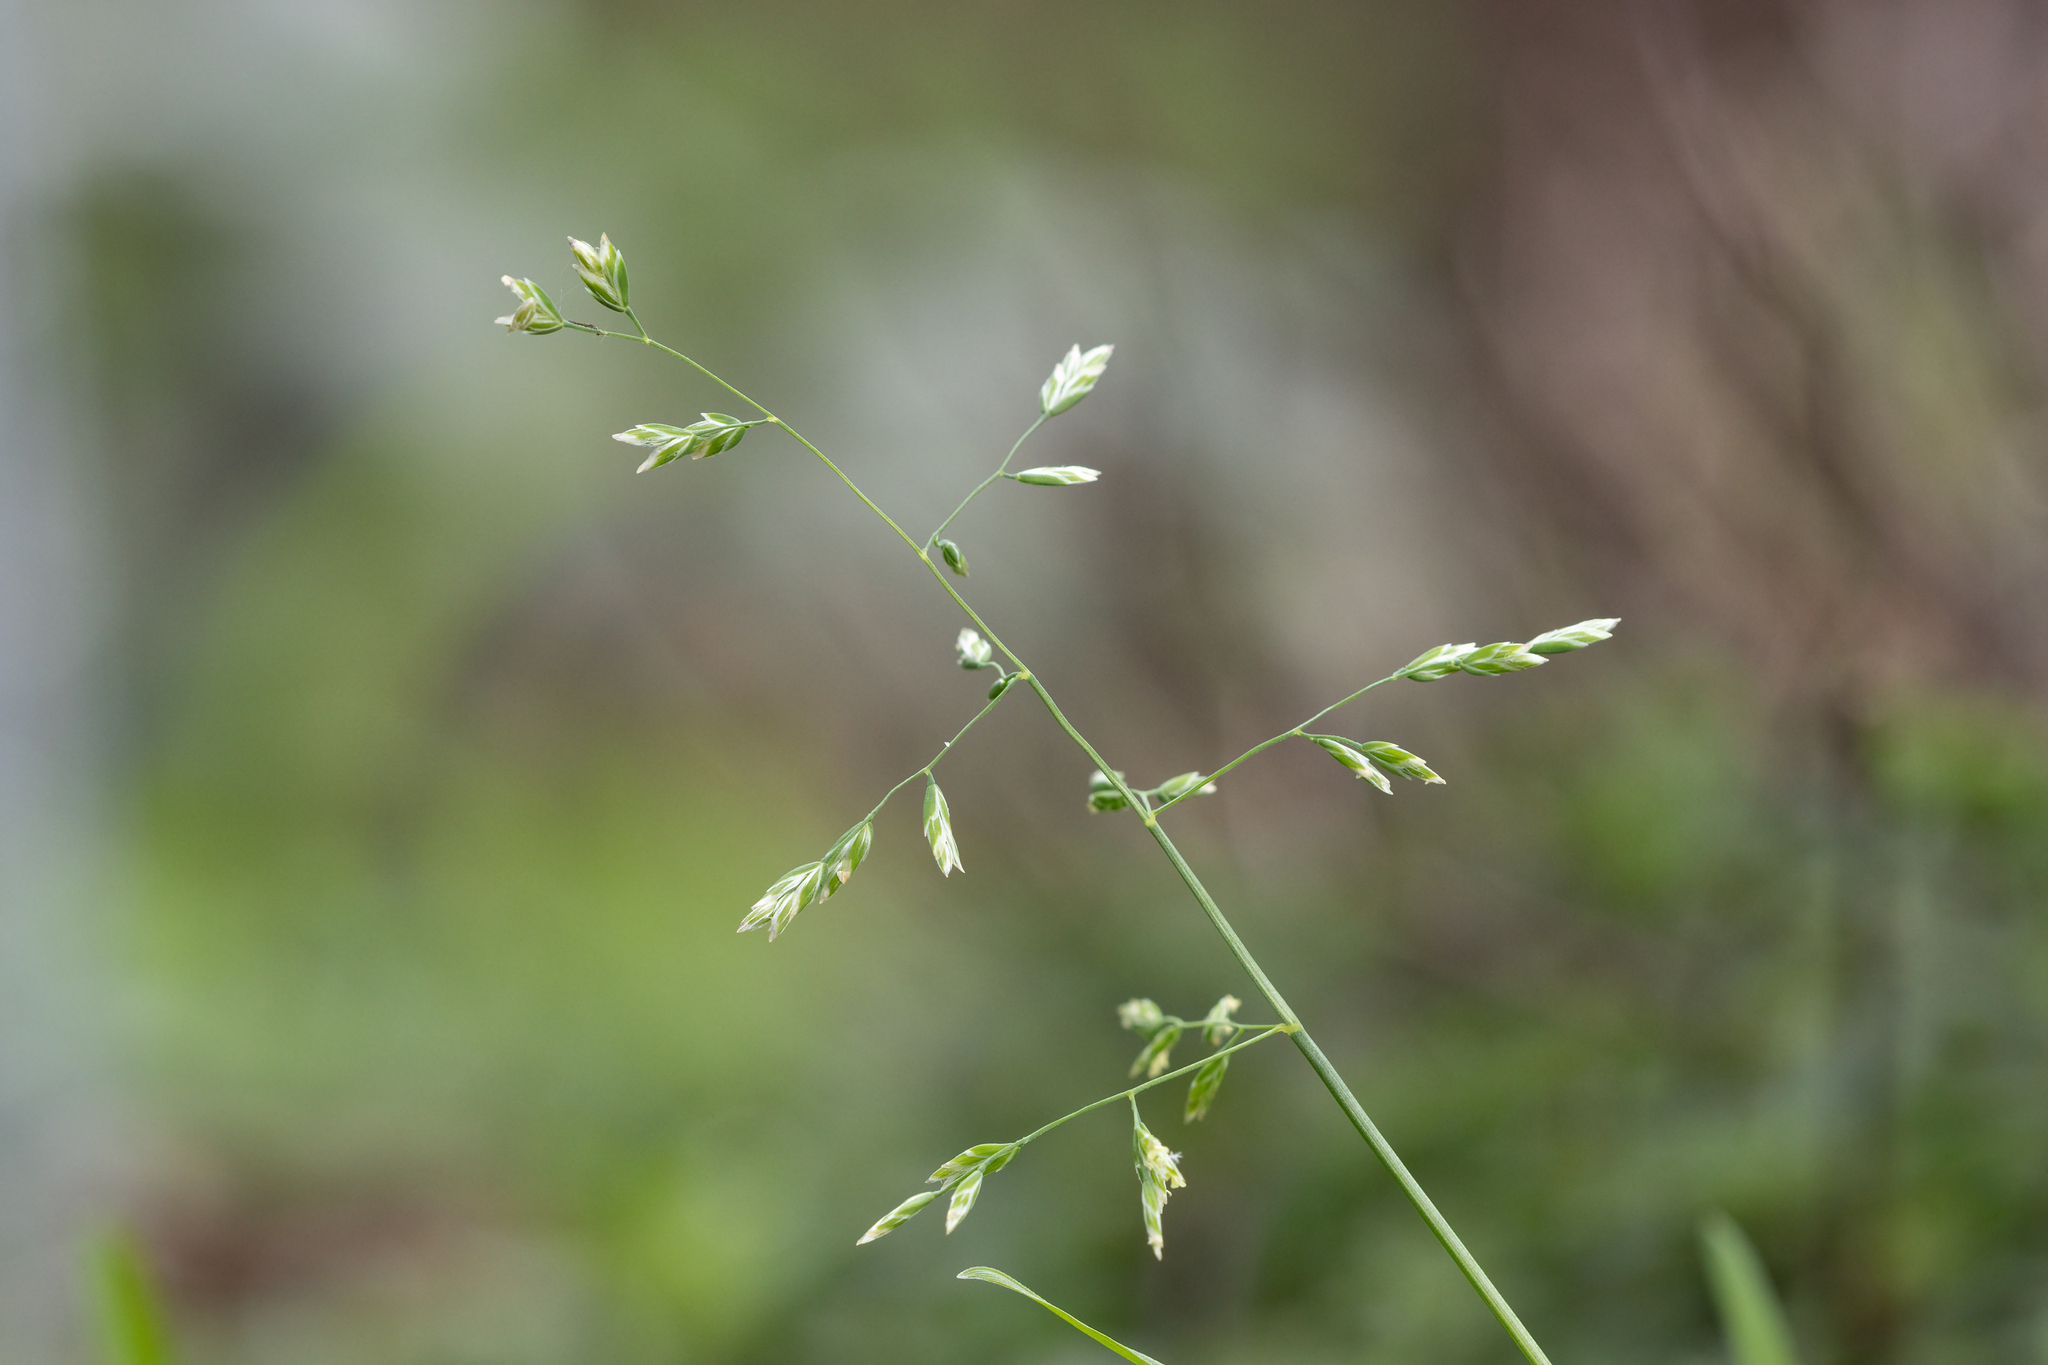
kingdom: Plantae
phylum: Tracheophyta
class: Liliopsida
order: Poales
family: Poaceae
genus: Poa
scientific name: Poa annua
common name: Annual bluegrass
